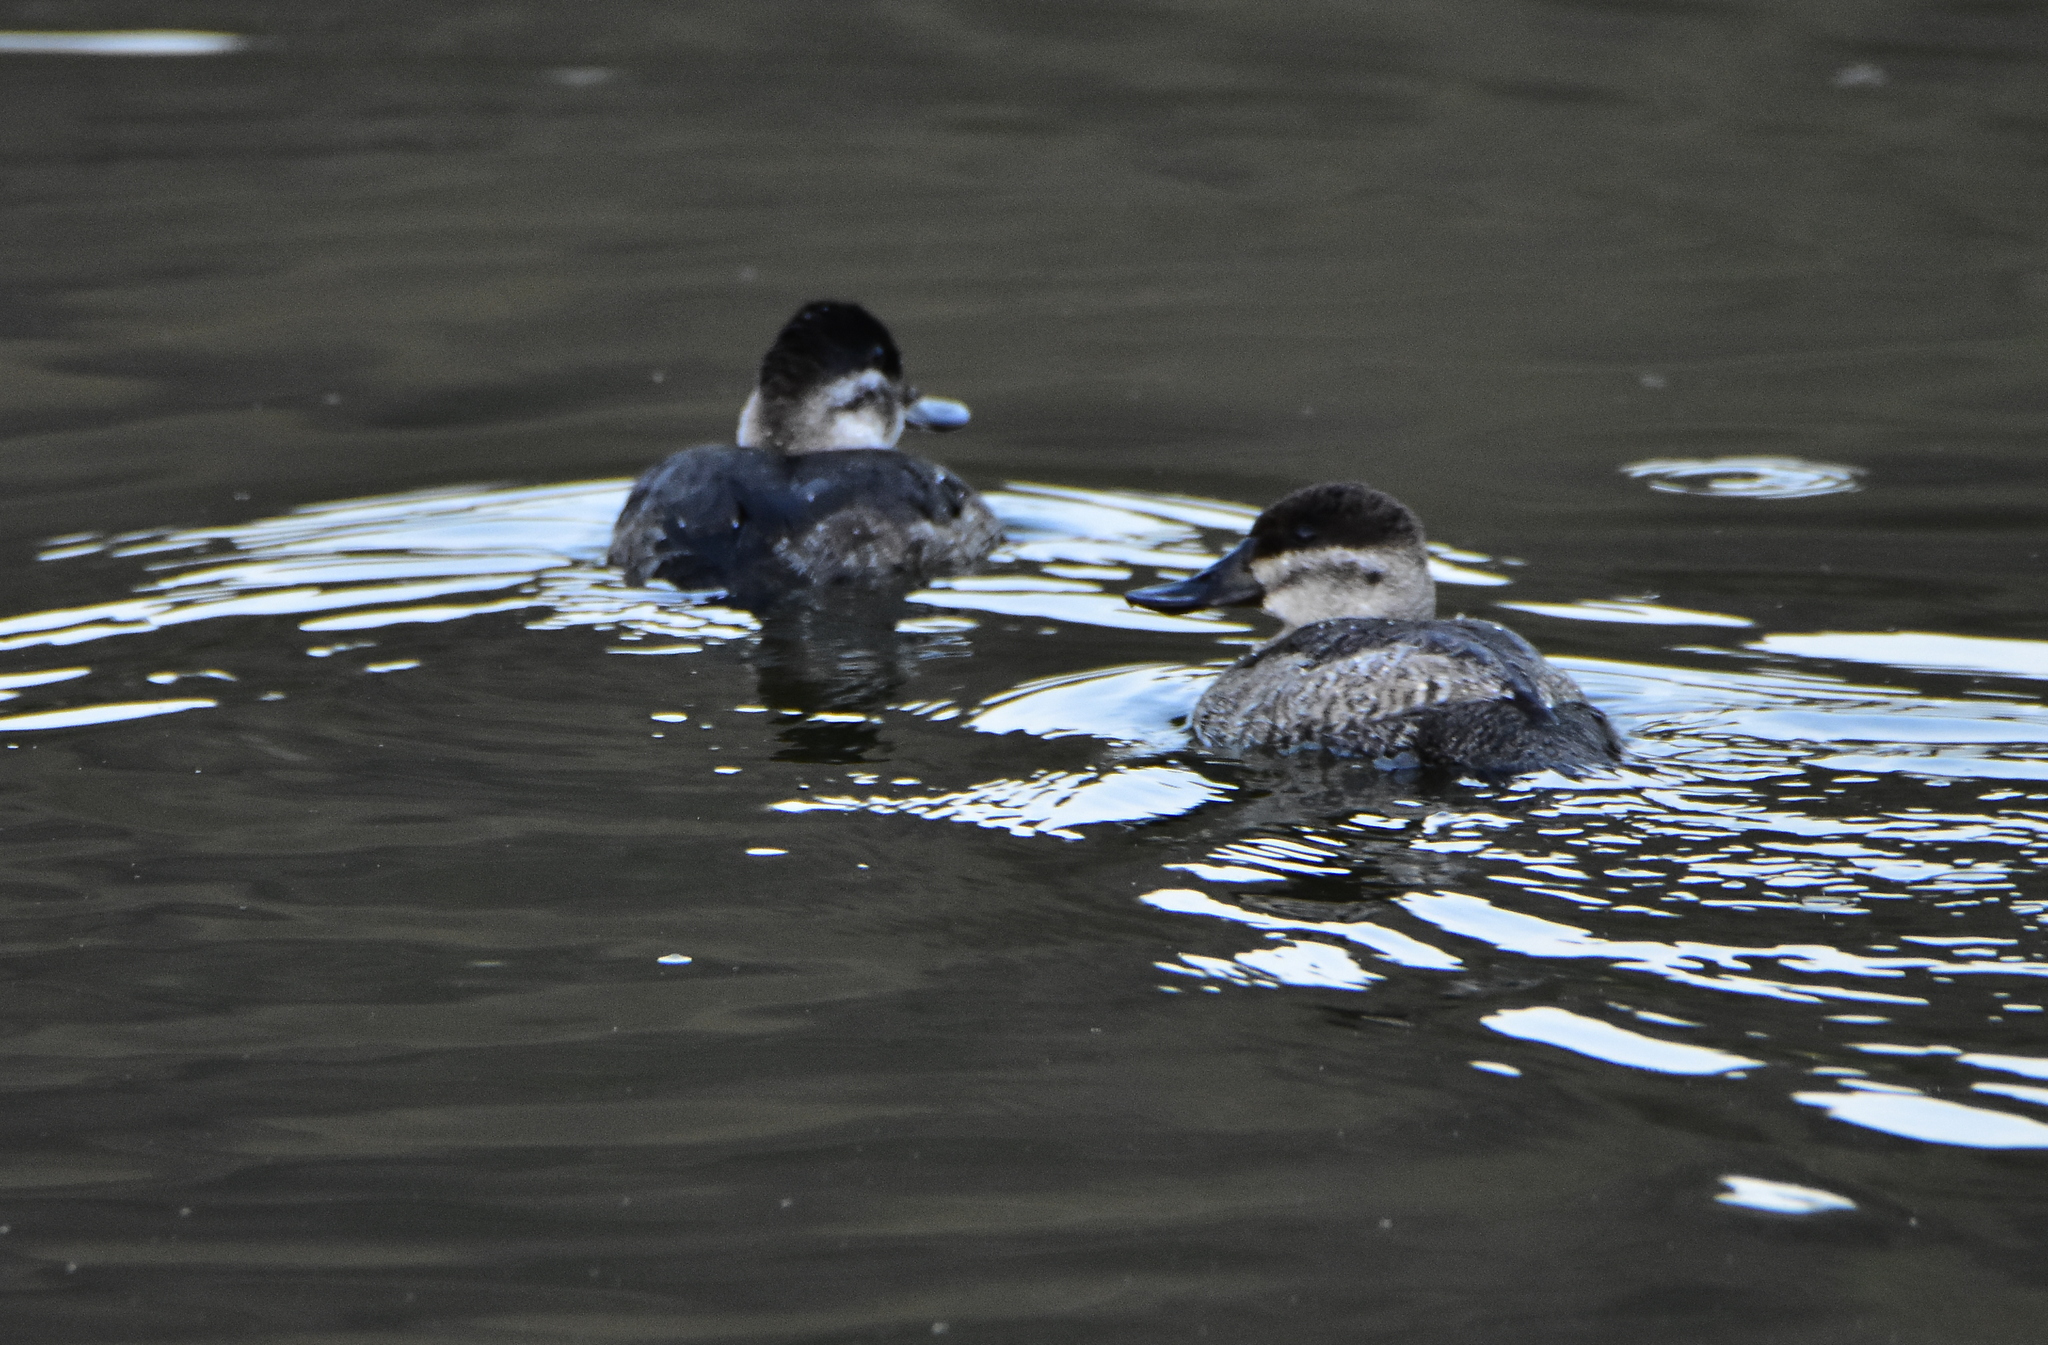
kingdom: Animalia
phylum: Chordata
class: Aves
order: Anseriformes
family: Anatidae
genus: Oxyura
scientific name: Oxyura jamaicensis
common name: Ruddy duck
